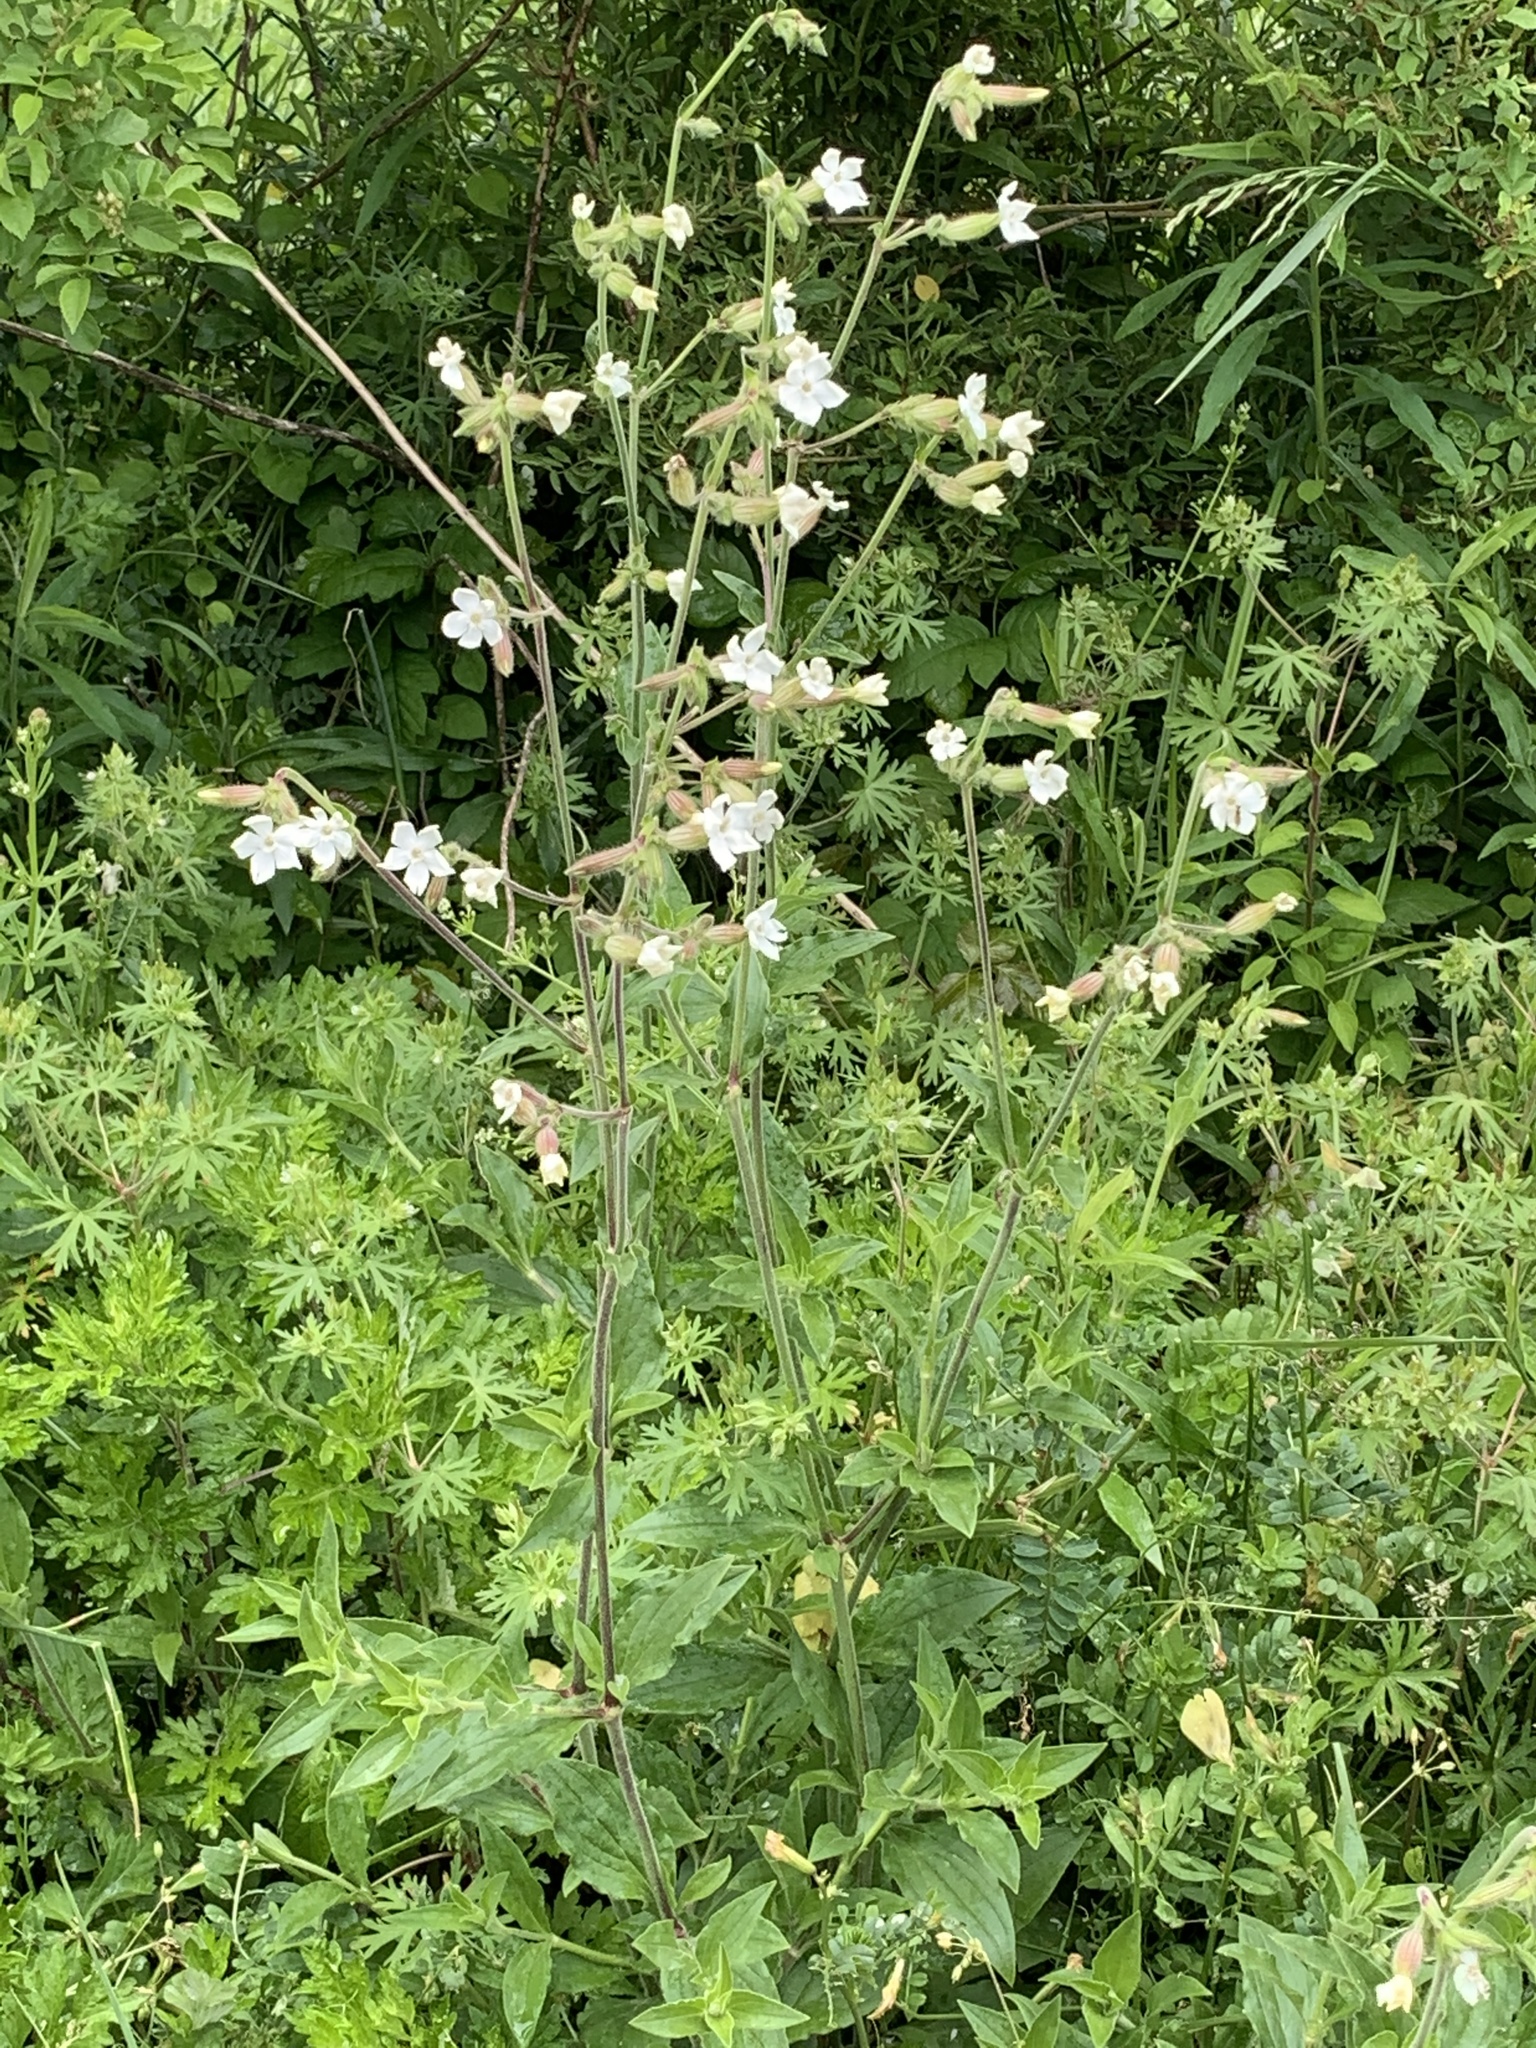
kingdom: Plantae
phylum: Tracheophyta
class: Magnoliopsida
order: Caryophyllales
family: Caryophyllaceae
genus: Silene
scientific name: Silene latifolia
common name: White campion
